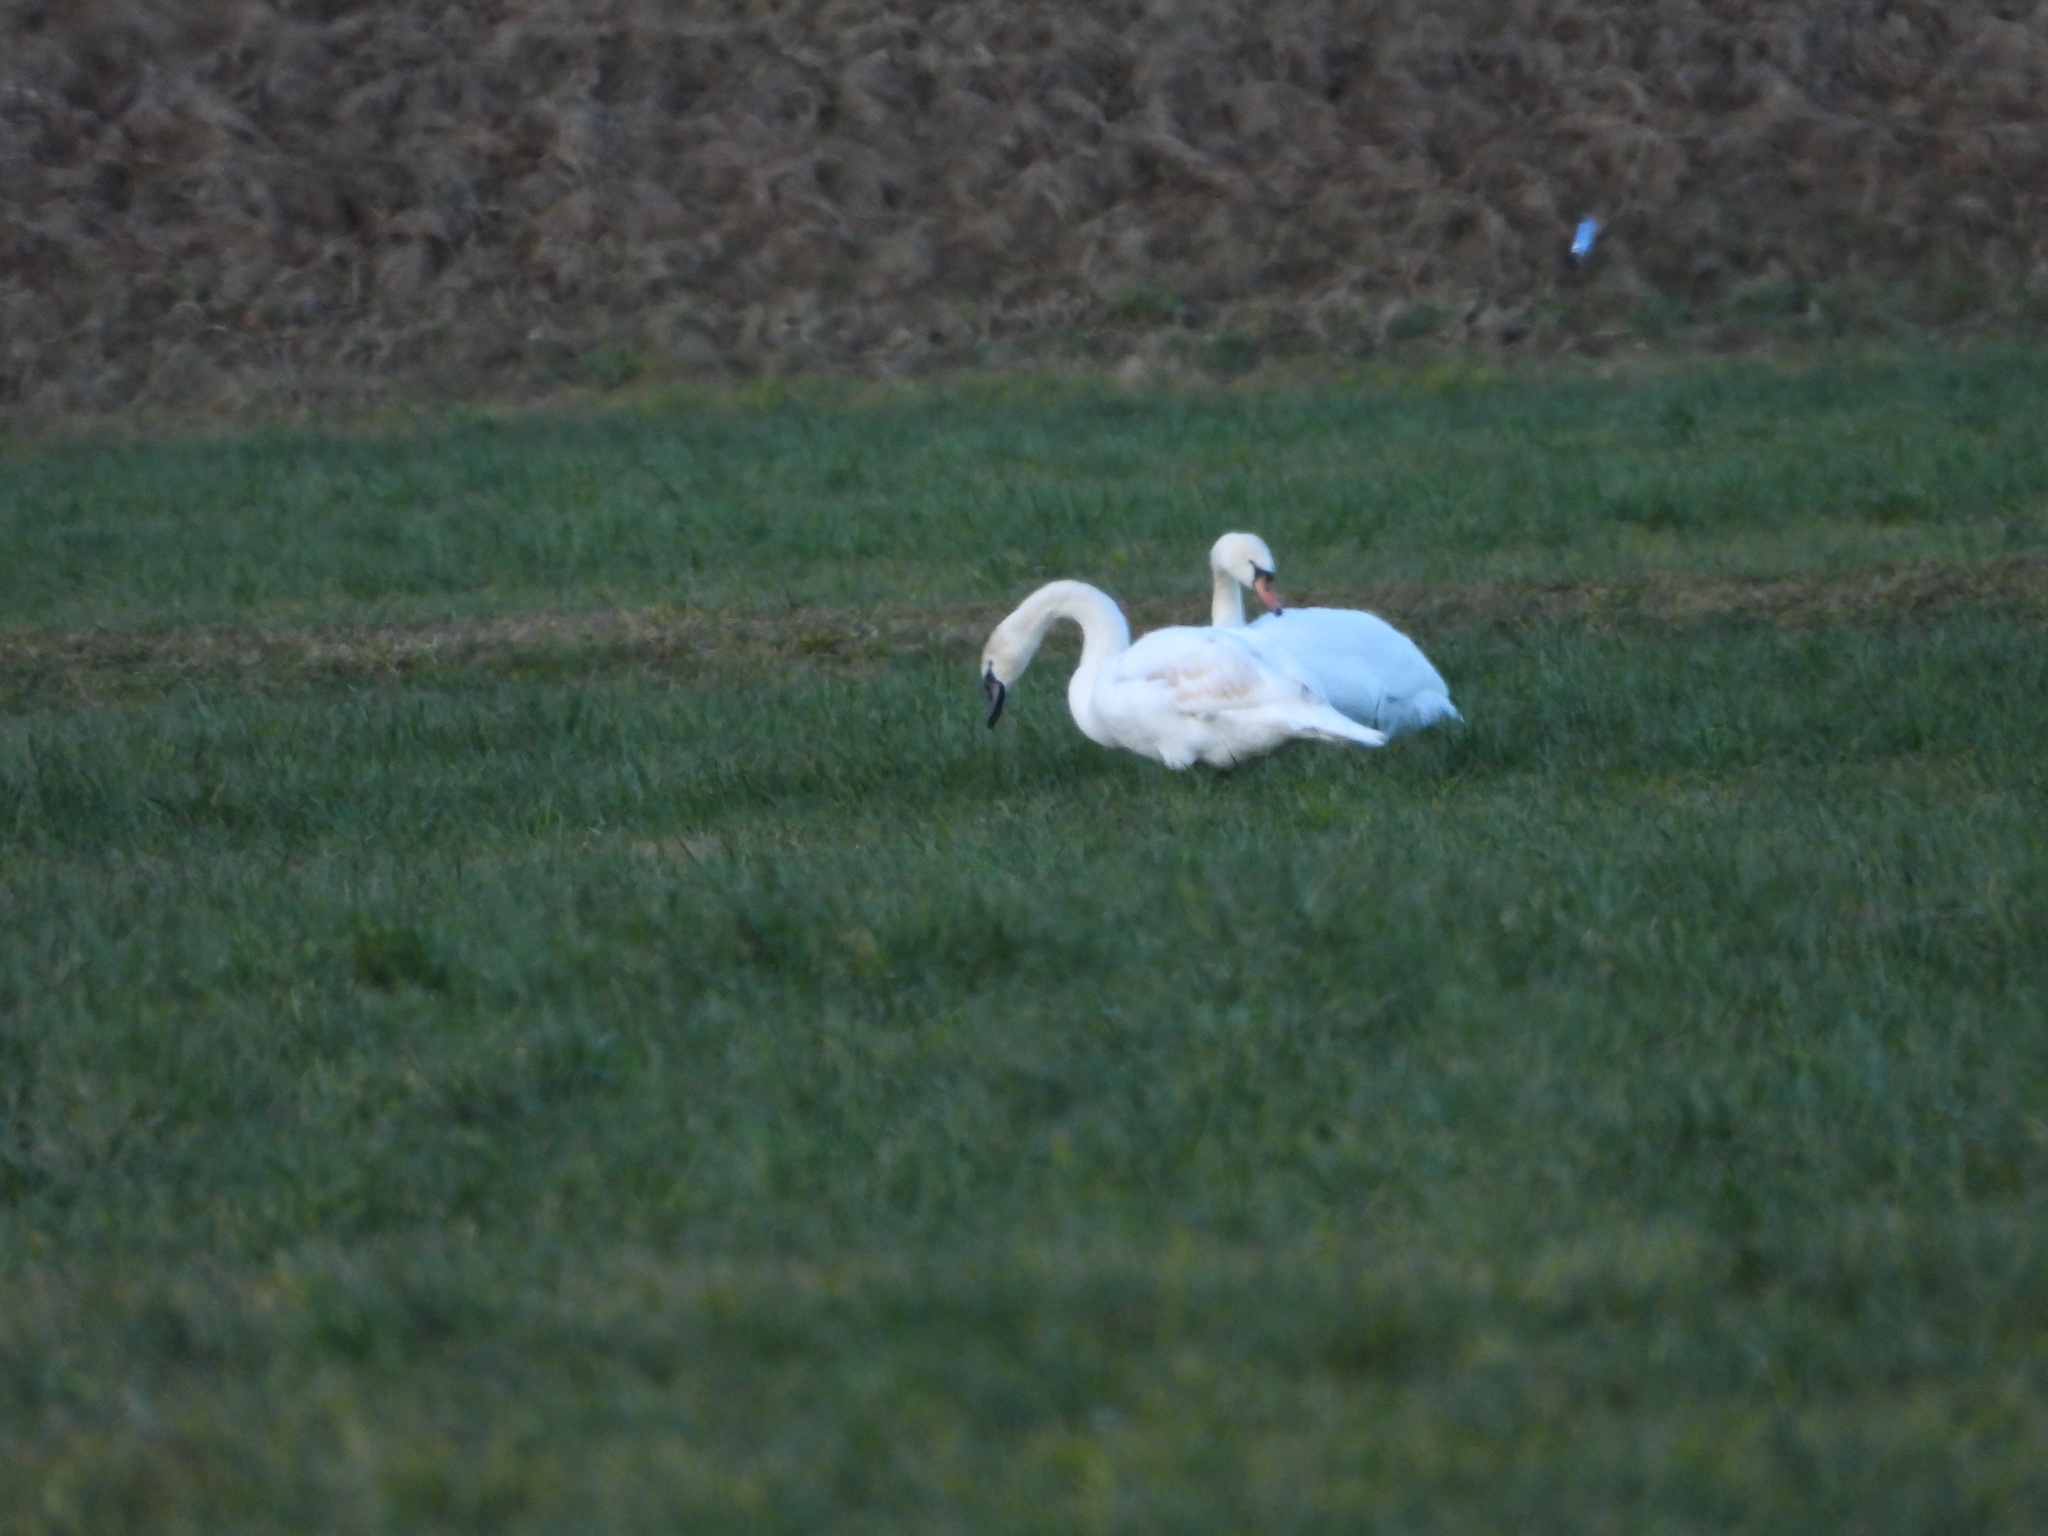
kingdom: Animalia
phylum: Chordata
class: Aves
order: Anseriformes
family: Anatidae
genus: Cygnus
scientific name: Cygnus olor
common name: Mute swan
